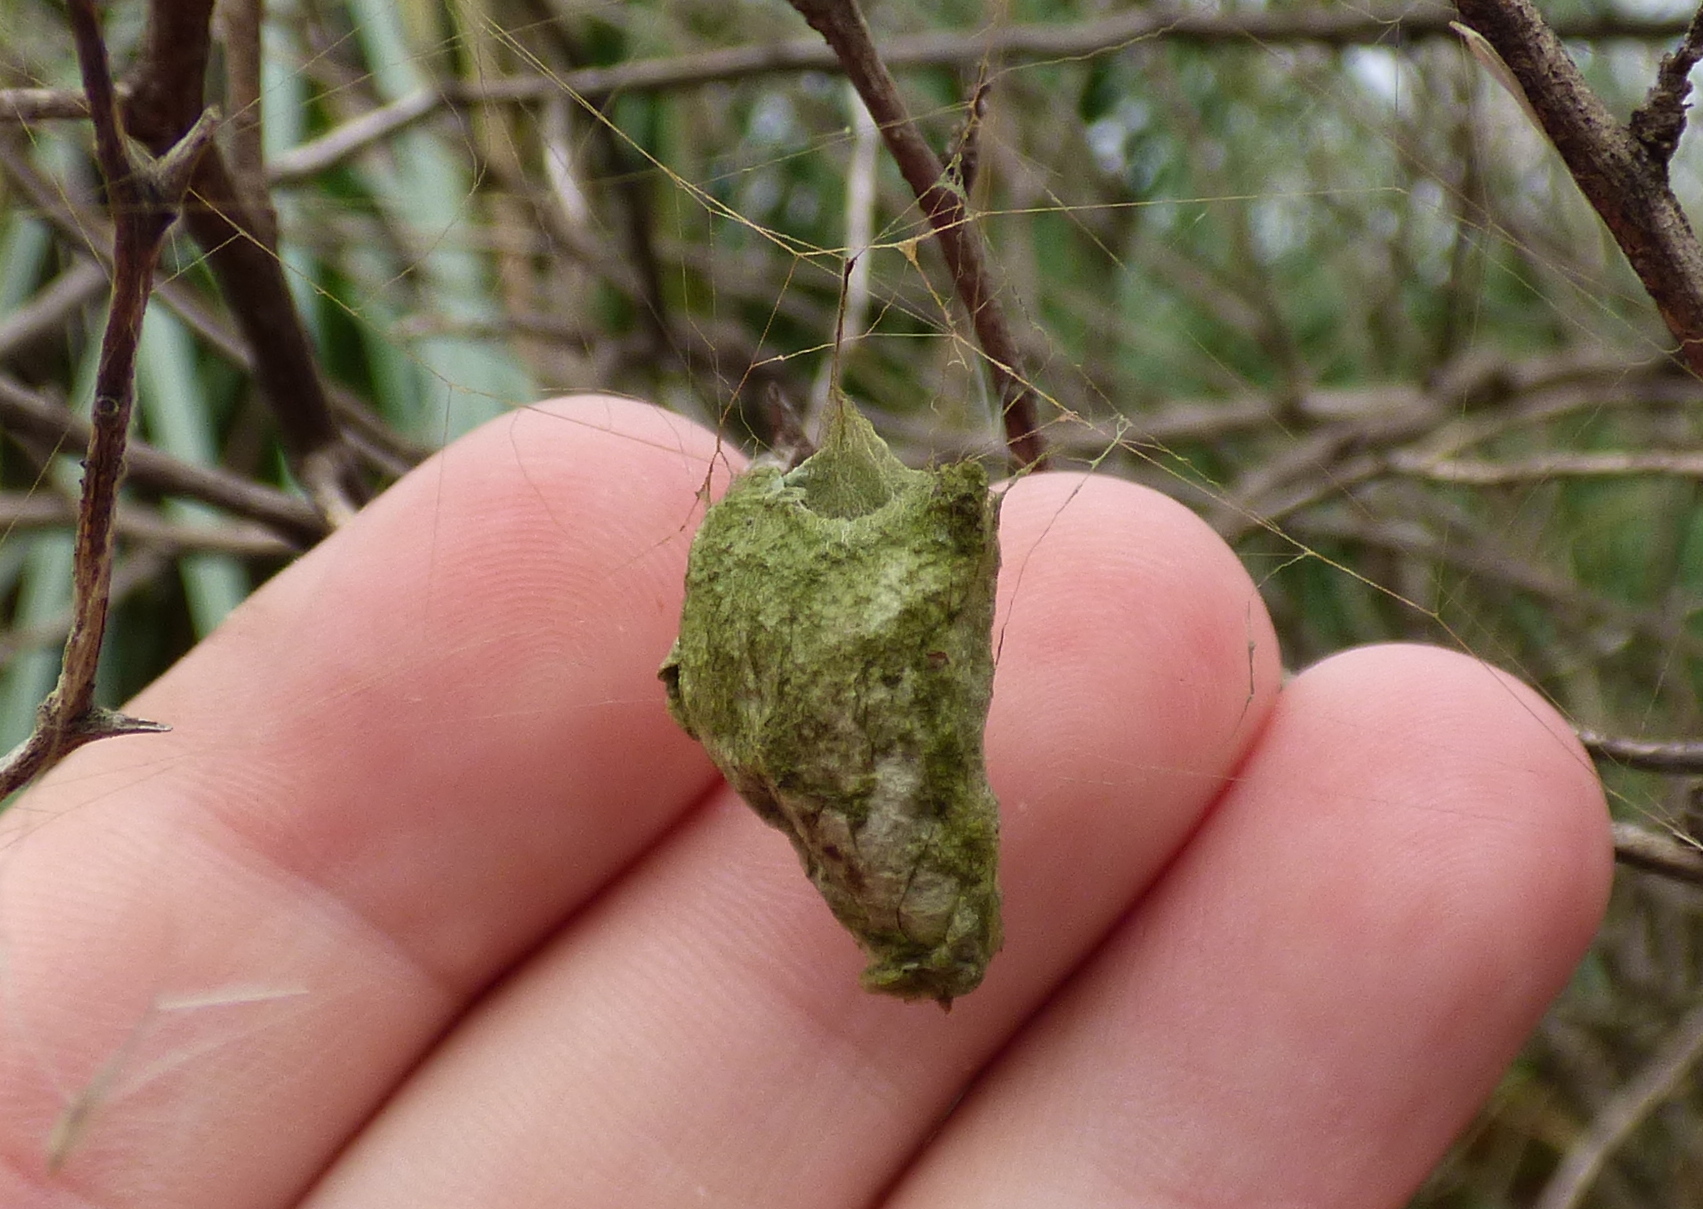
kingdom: Animalia
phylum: Arthropoda
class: Arachnida
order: Araneae
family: Araneidae
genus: Argiope
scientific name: Argiope argentata
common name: Orb weavers
